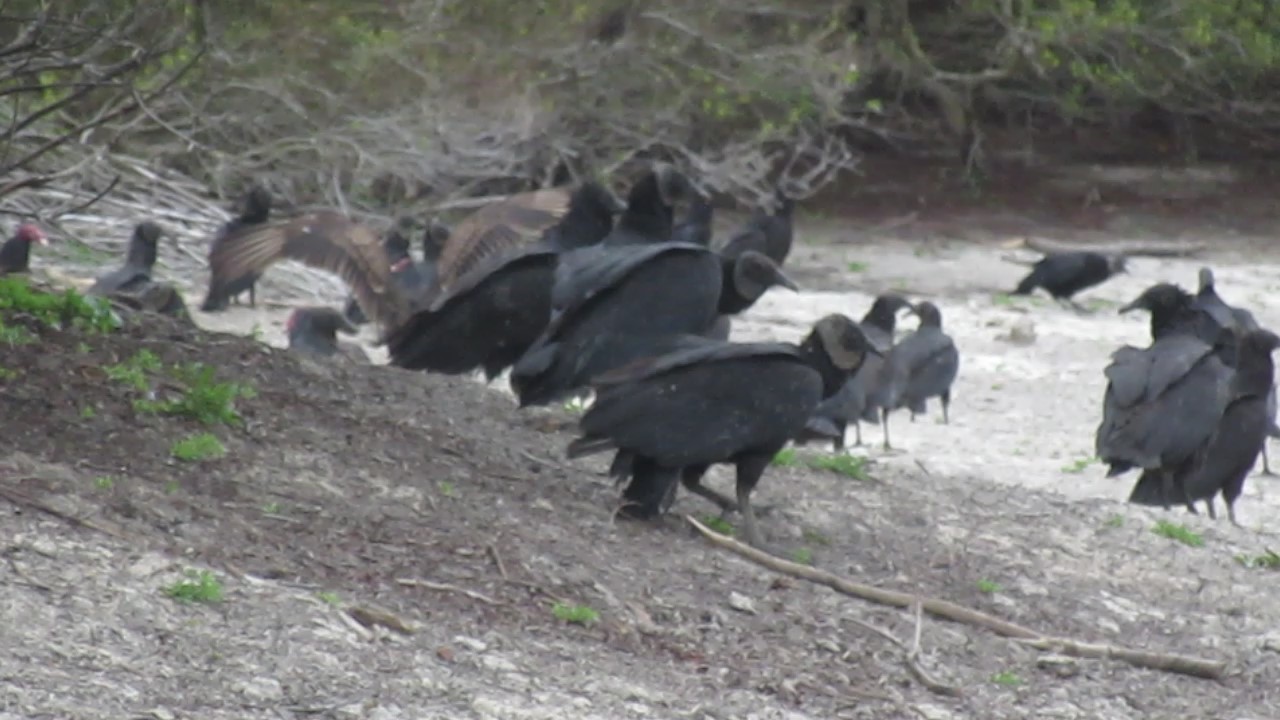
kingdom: Animalia
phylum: Chordata
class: Aves
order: Accipitriformes
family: Cathartidae
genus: Cathartes
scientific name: Cathartes aura
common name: Turkey vulture
